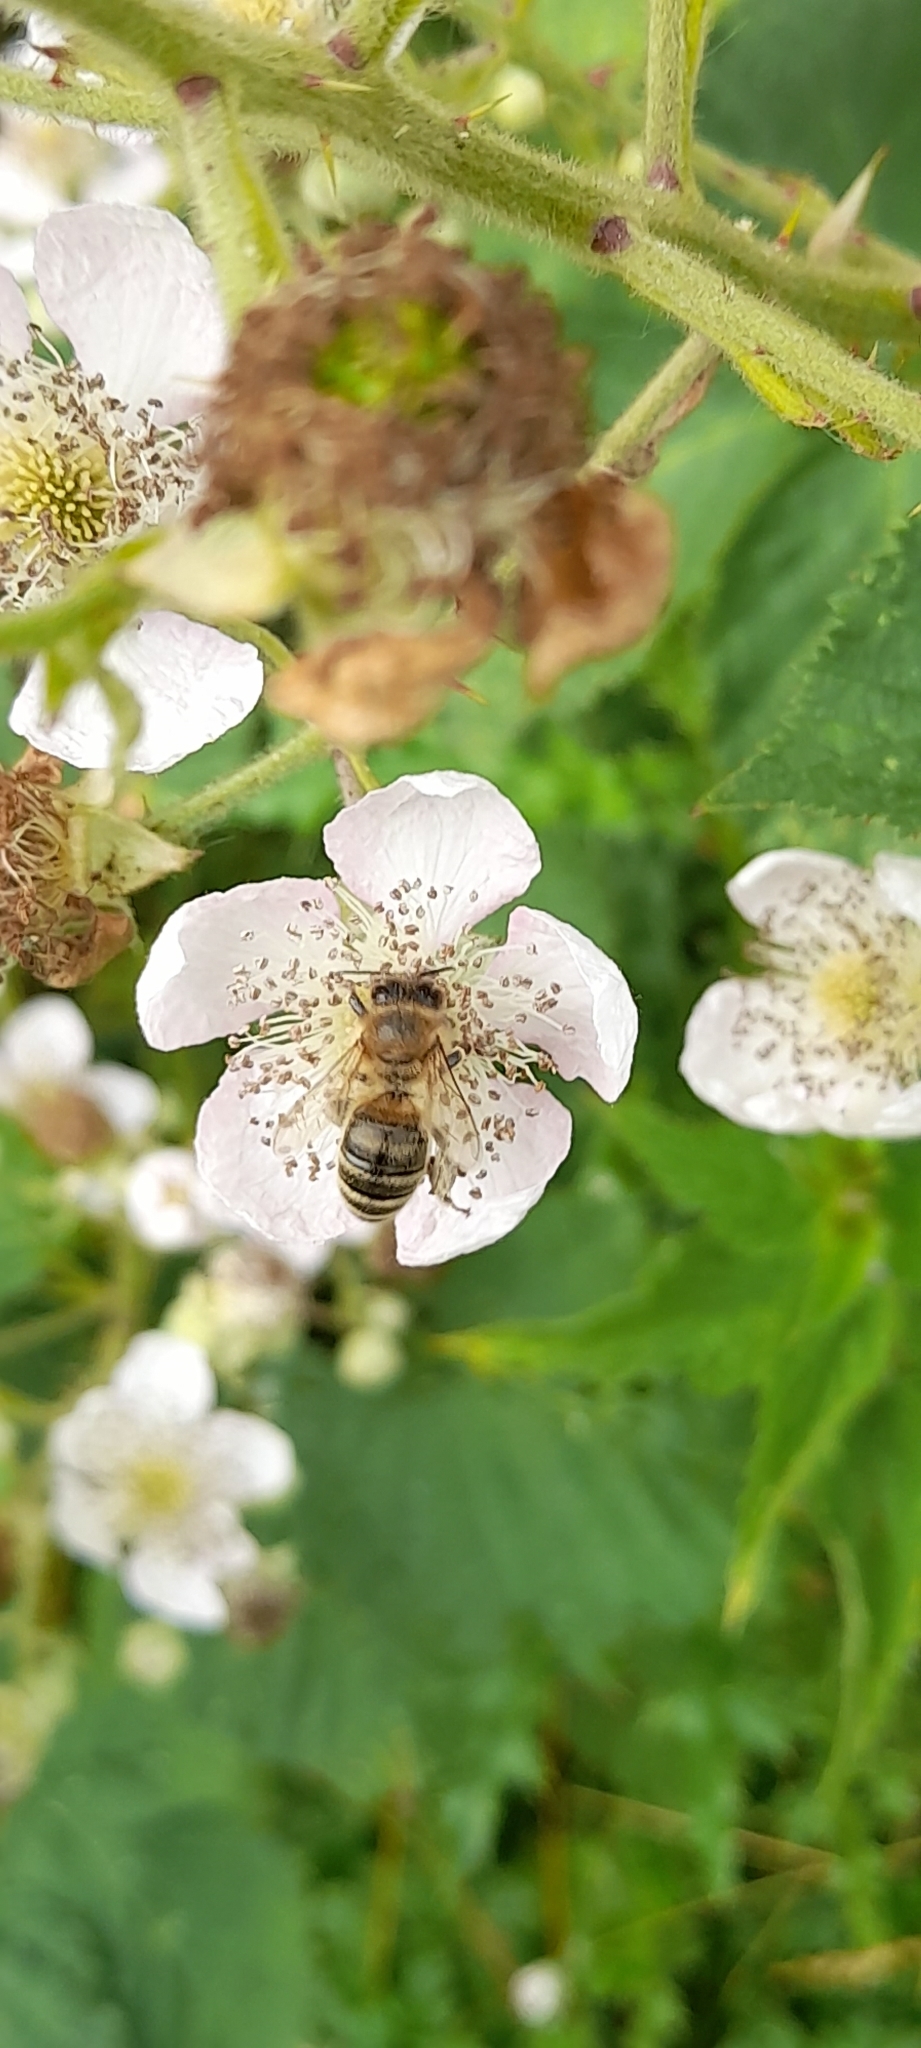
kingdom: Animalia
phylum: Arthropoda
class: Insecta
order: Hymenoptera
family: Apidae
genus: Apis
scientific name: Apis mellifera
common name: Honey bee
